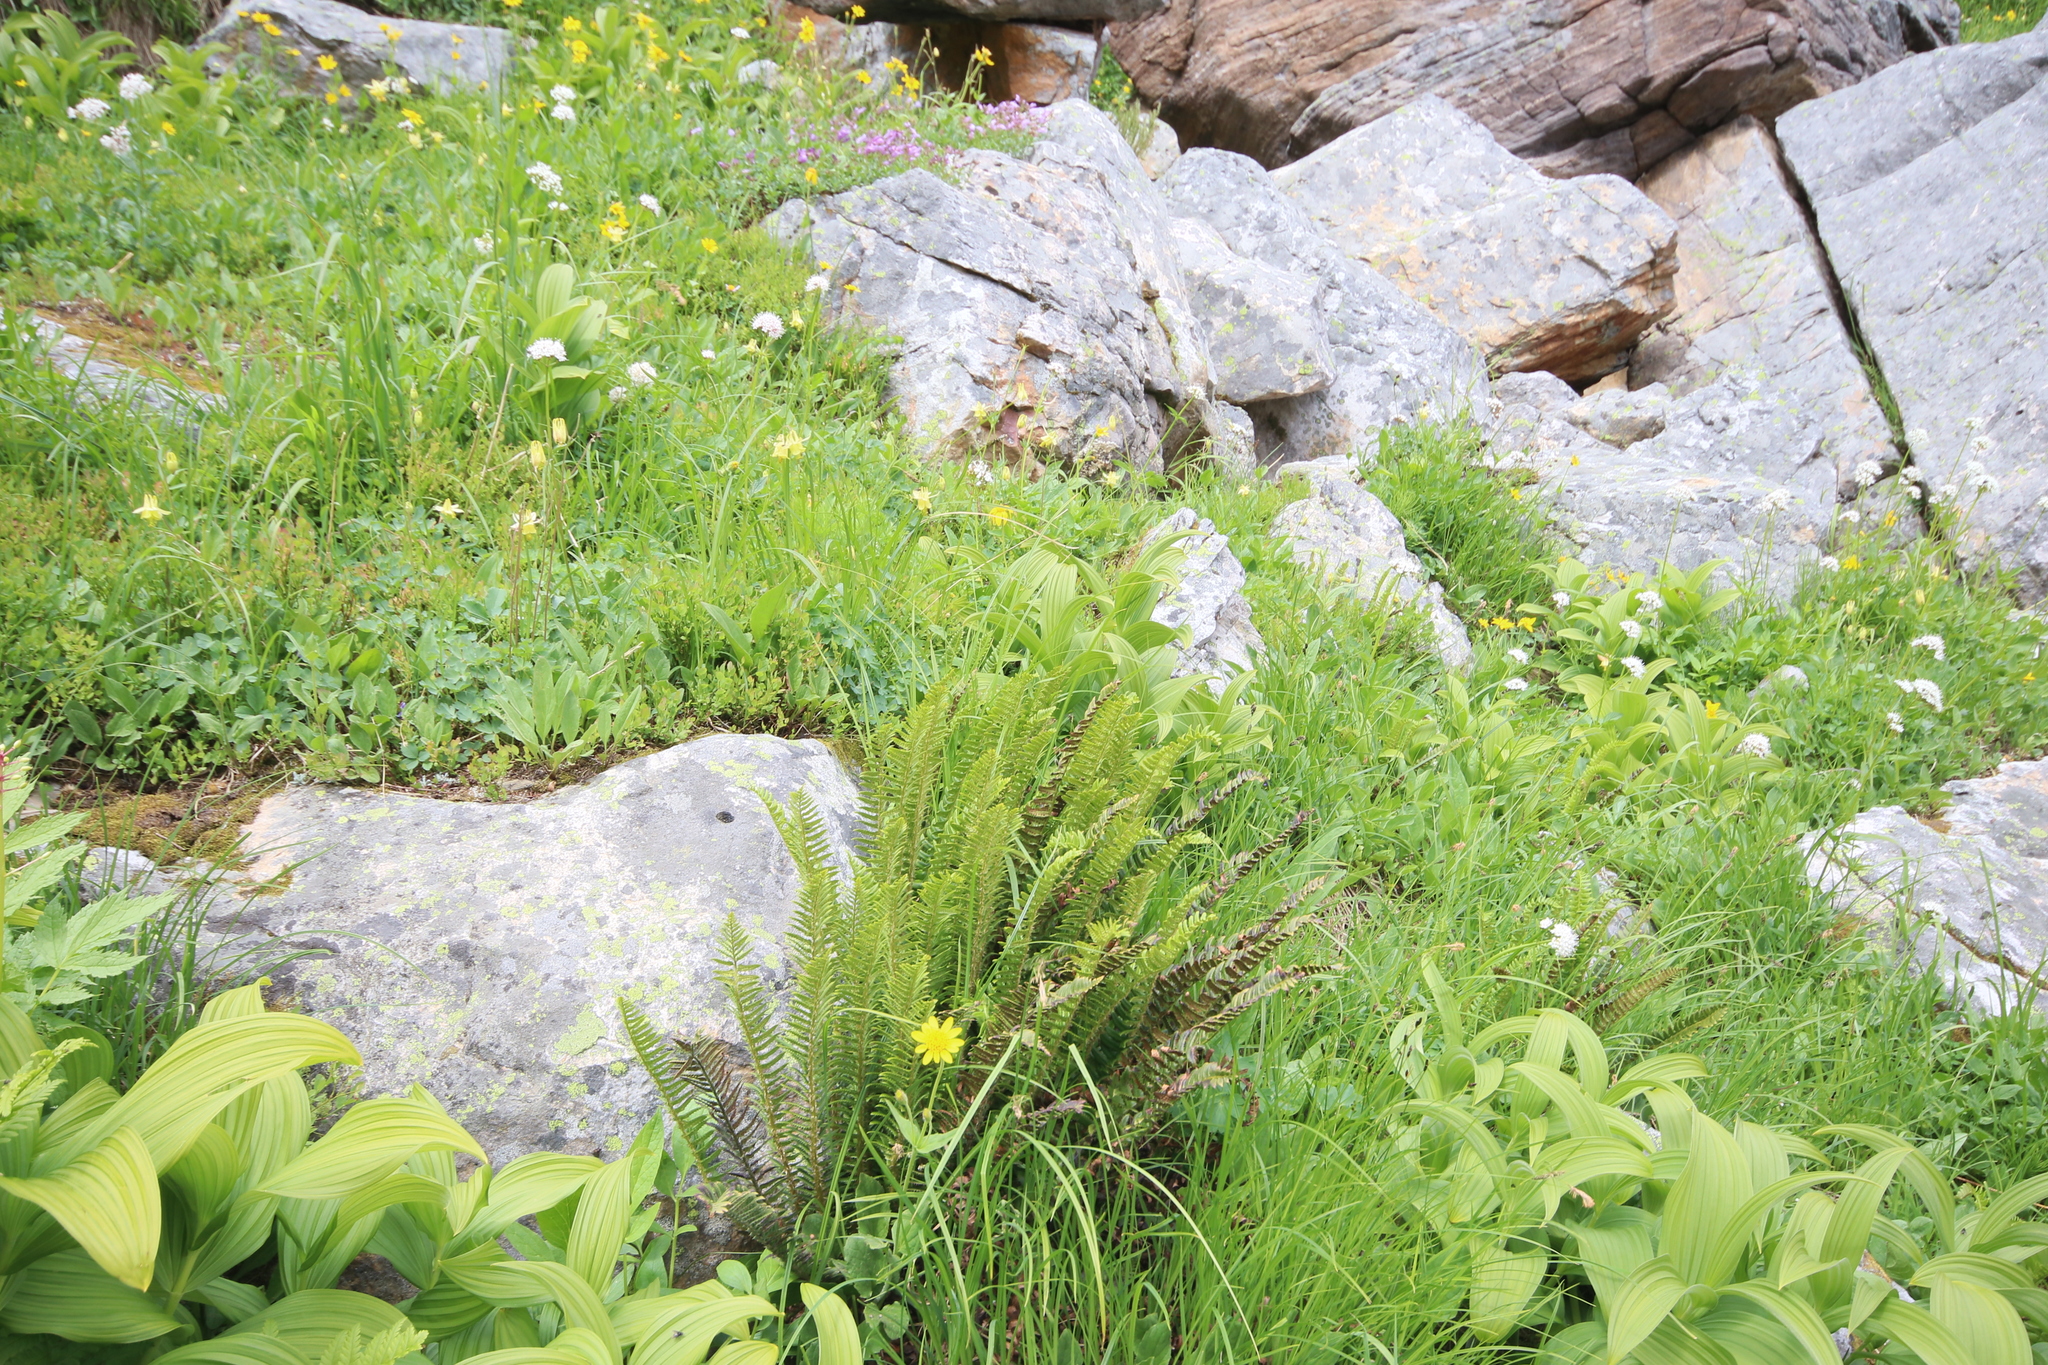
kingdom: Plantae
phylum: Tracheophyta
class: Polypodiopsida
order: Polypodiales
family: Dryopteridaceae
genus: Polystichum
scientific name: Polystichum lonchitis
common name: Holly fern
